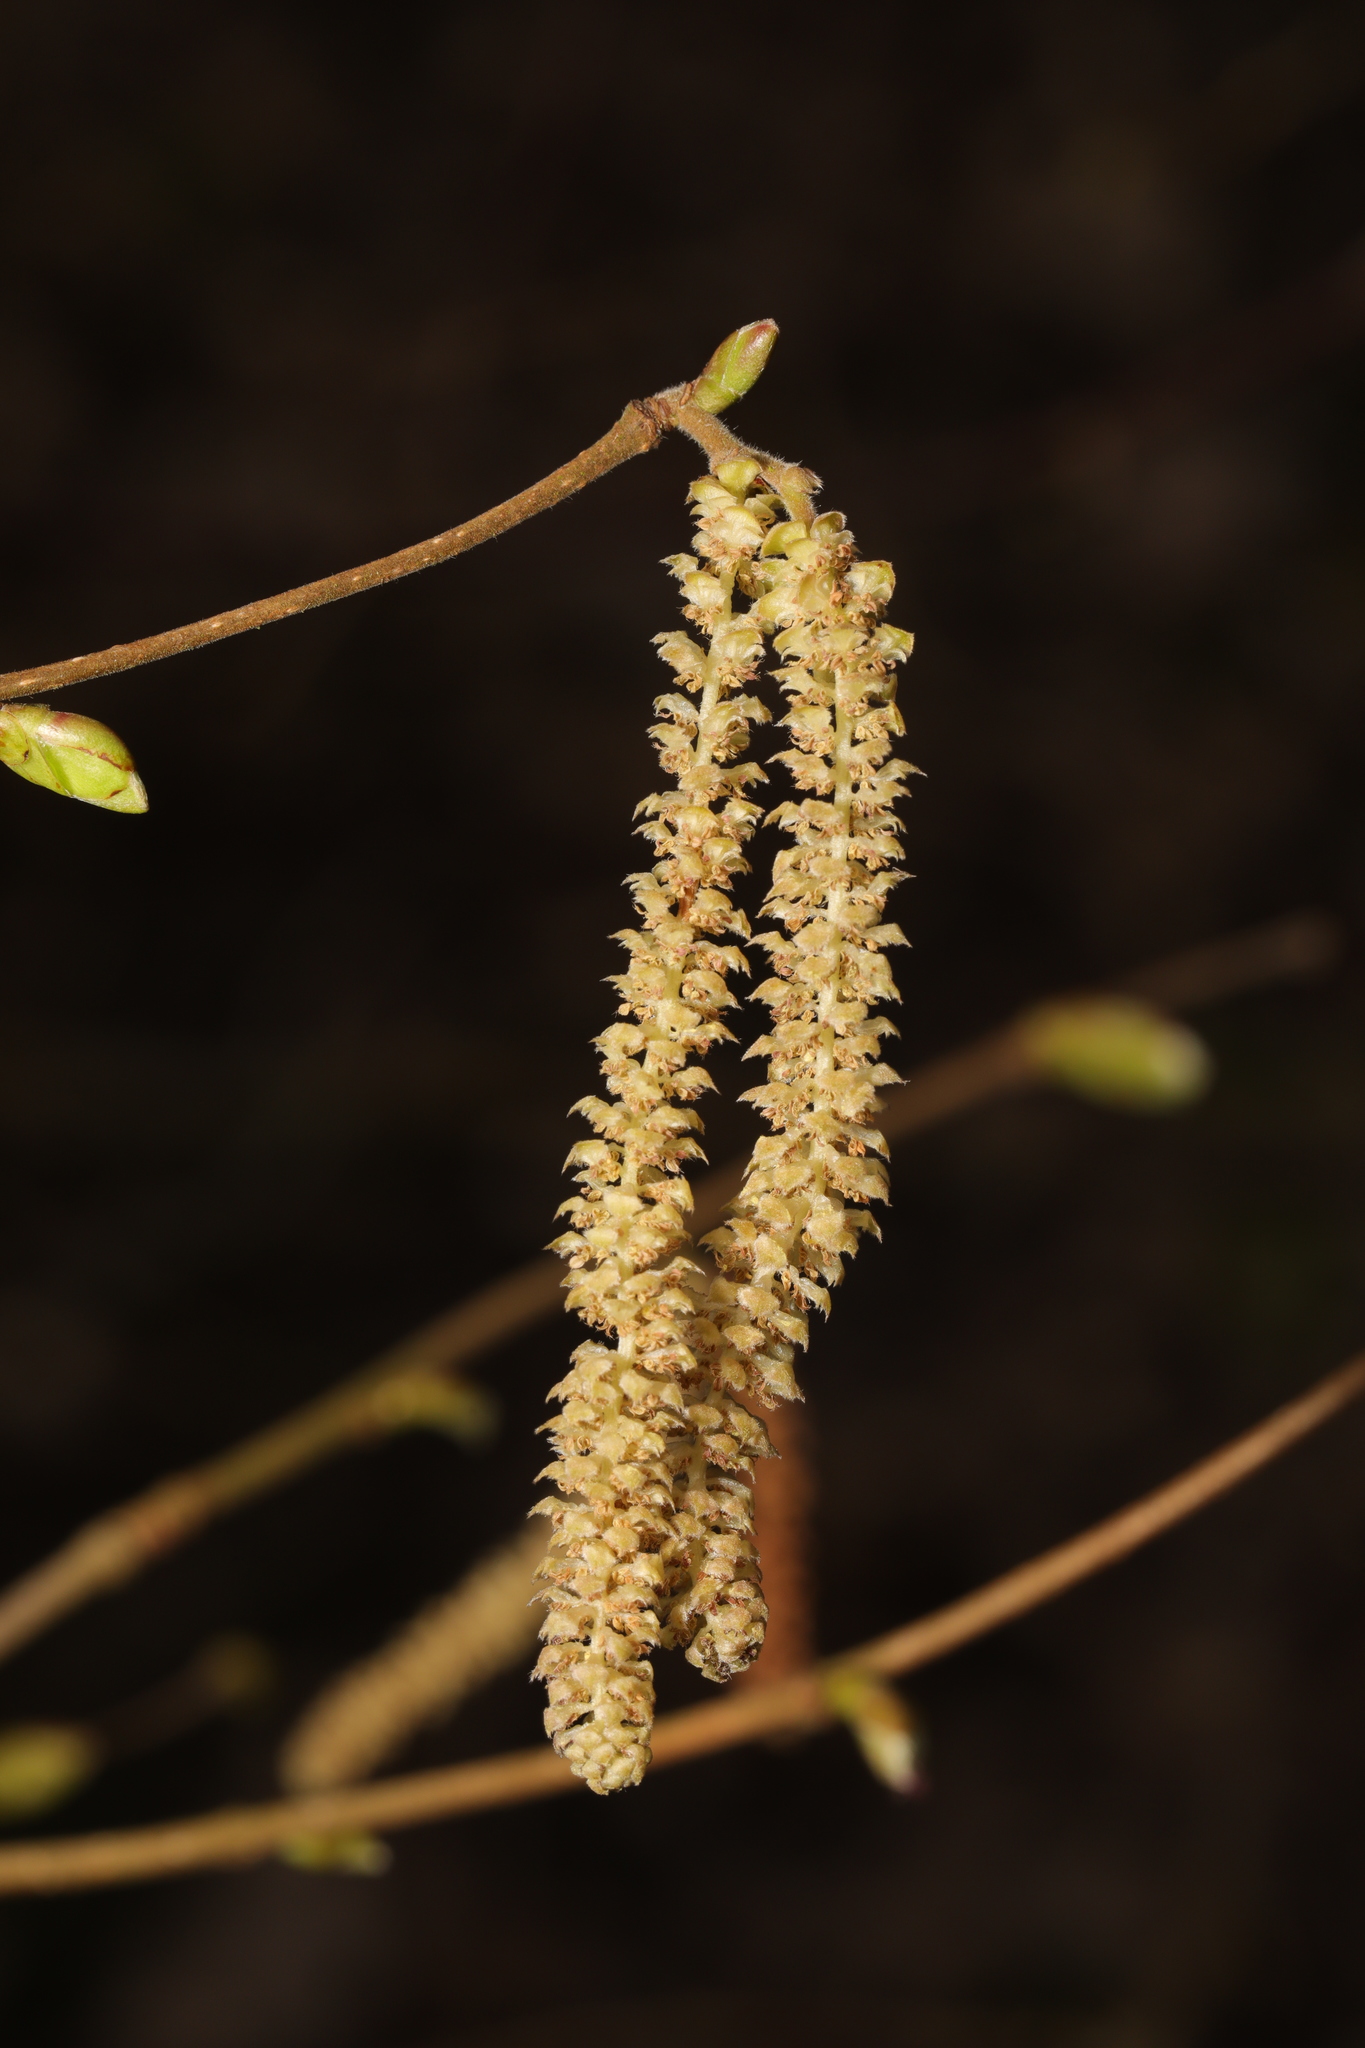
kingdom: Plantae
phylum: Tracheophyta
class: Magnoliopsida
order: Fagales
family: Betulaceae
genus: Corylus
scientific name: Corylus avellana
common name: European hazel
